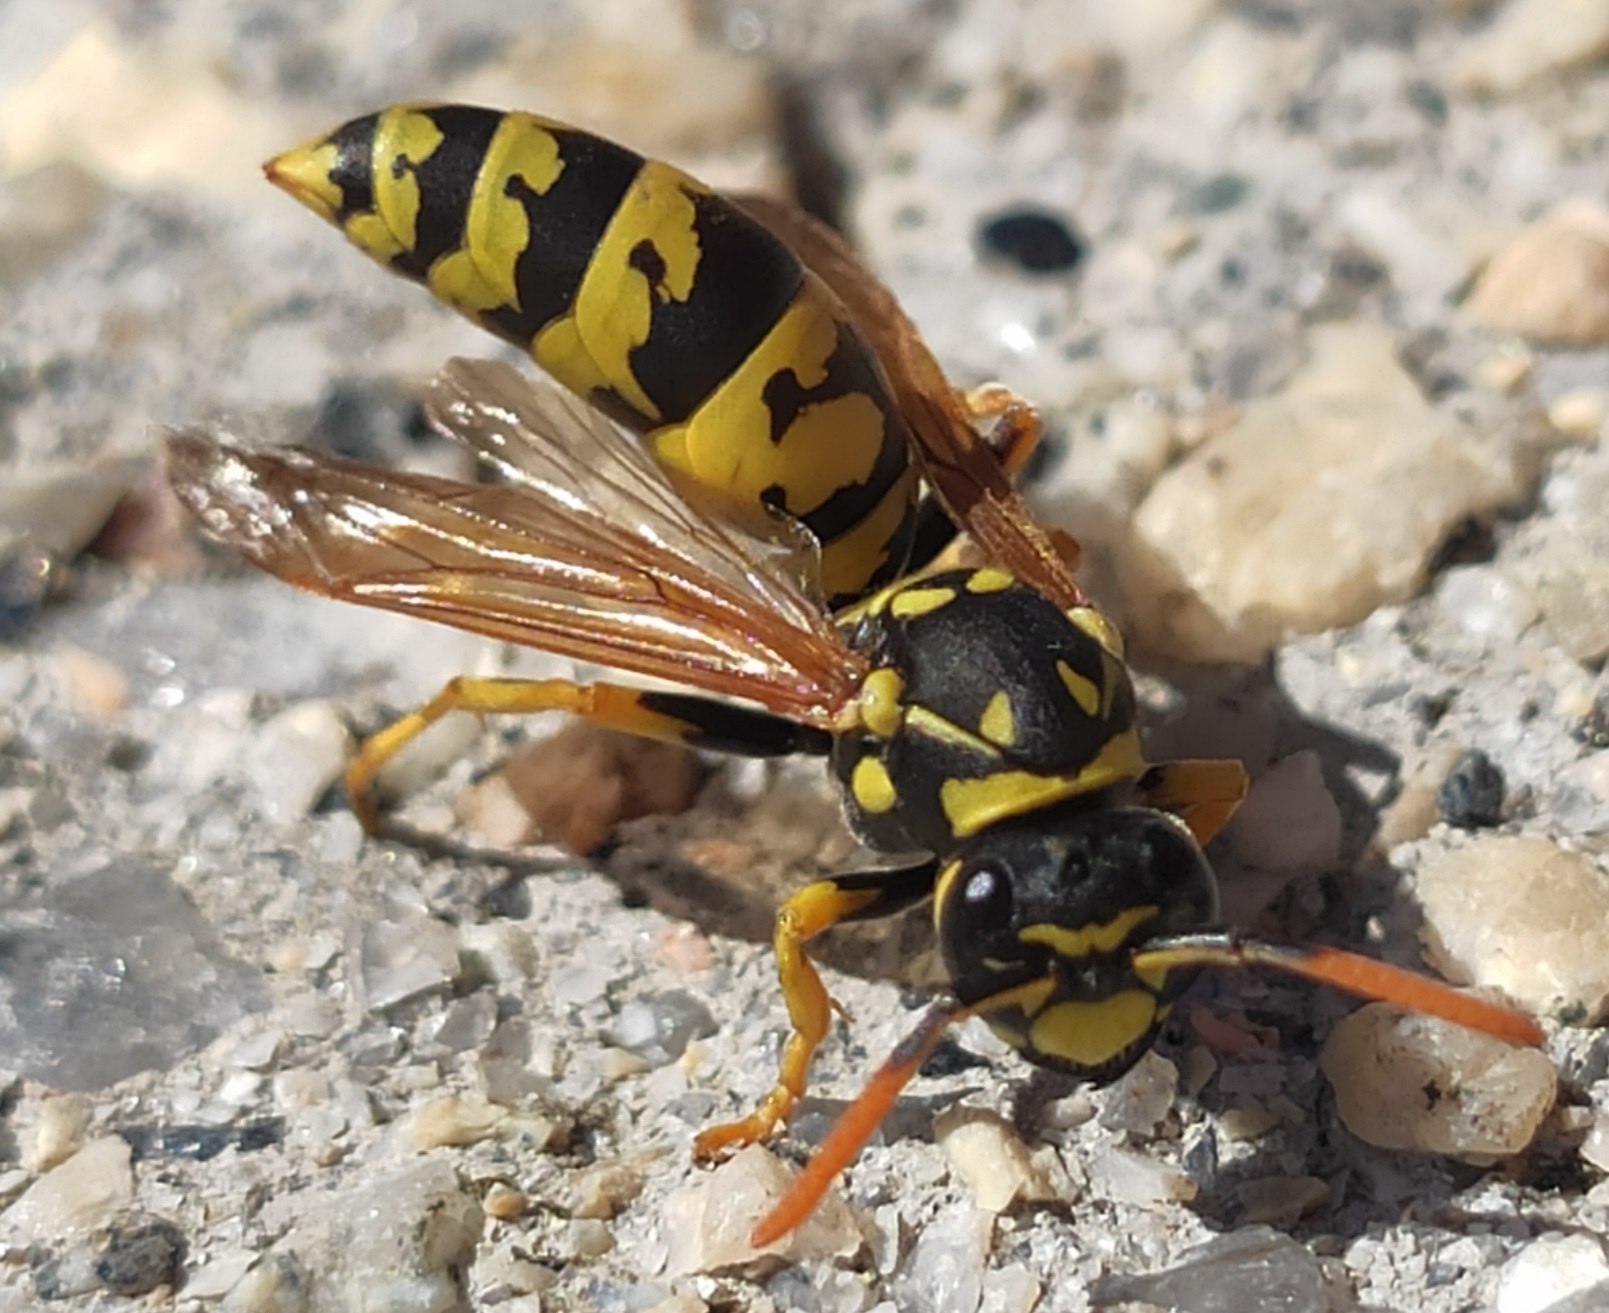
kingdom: Animalia
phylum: Arthropoda
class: Insecta
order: Hymenoptera
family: Eumenidae
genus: Polistes
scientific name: Polistes dominula
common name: Paper wasp
